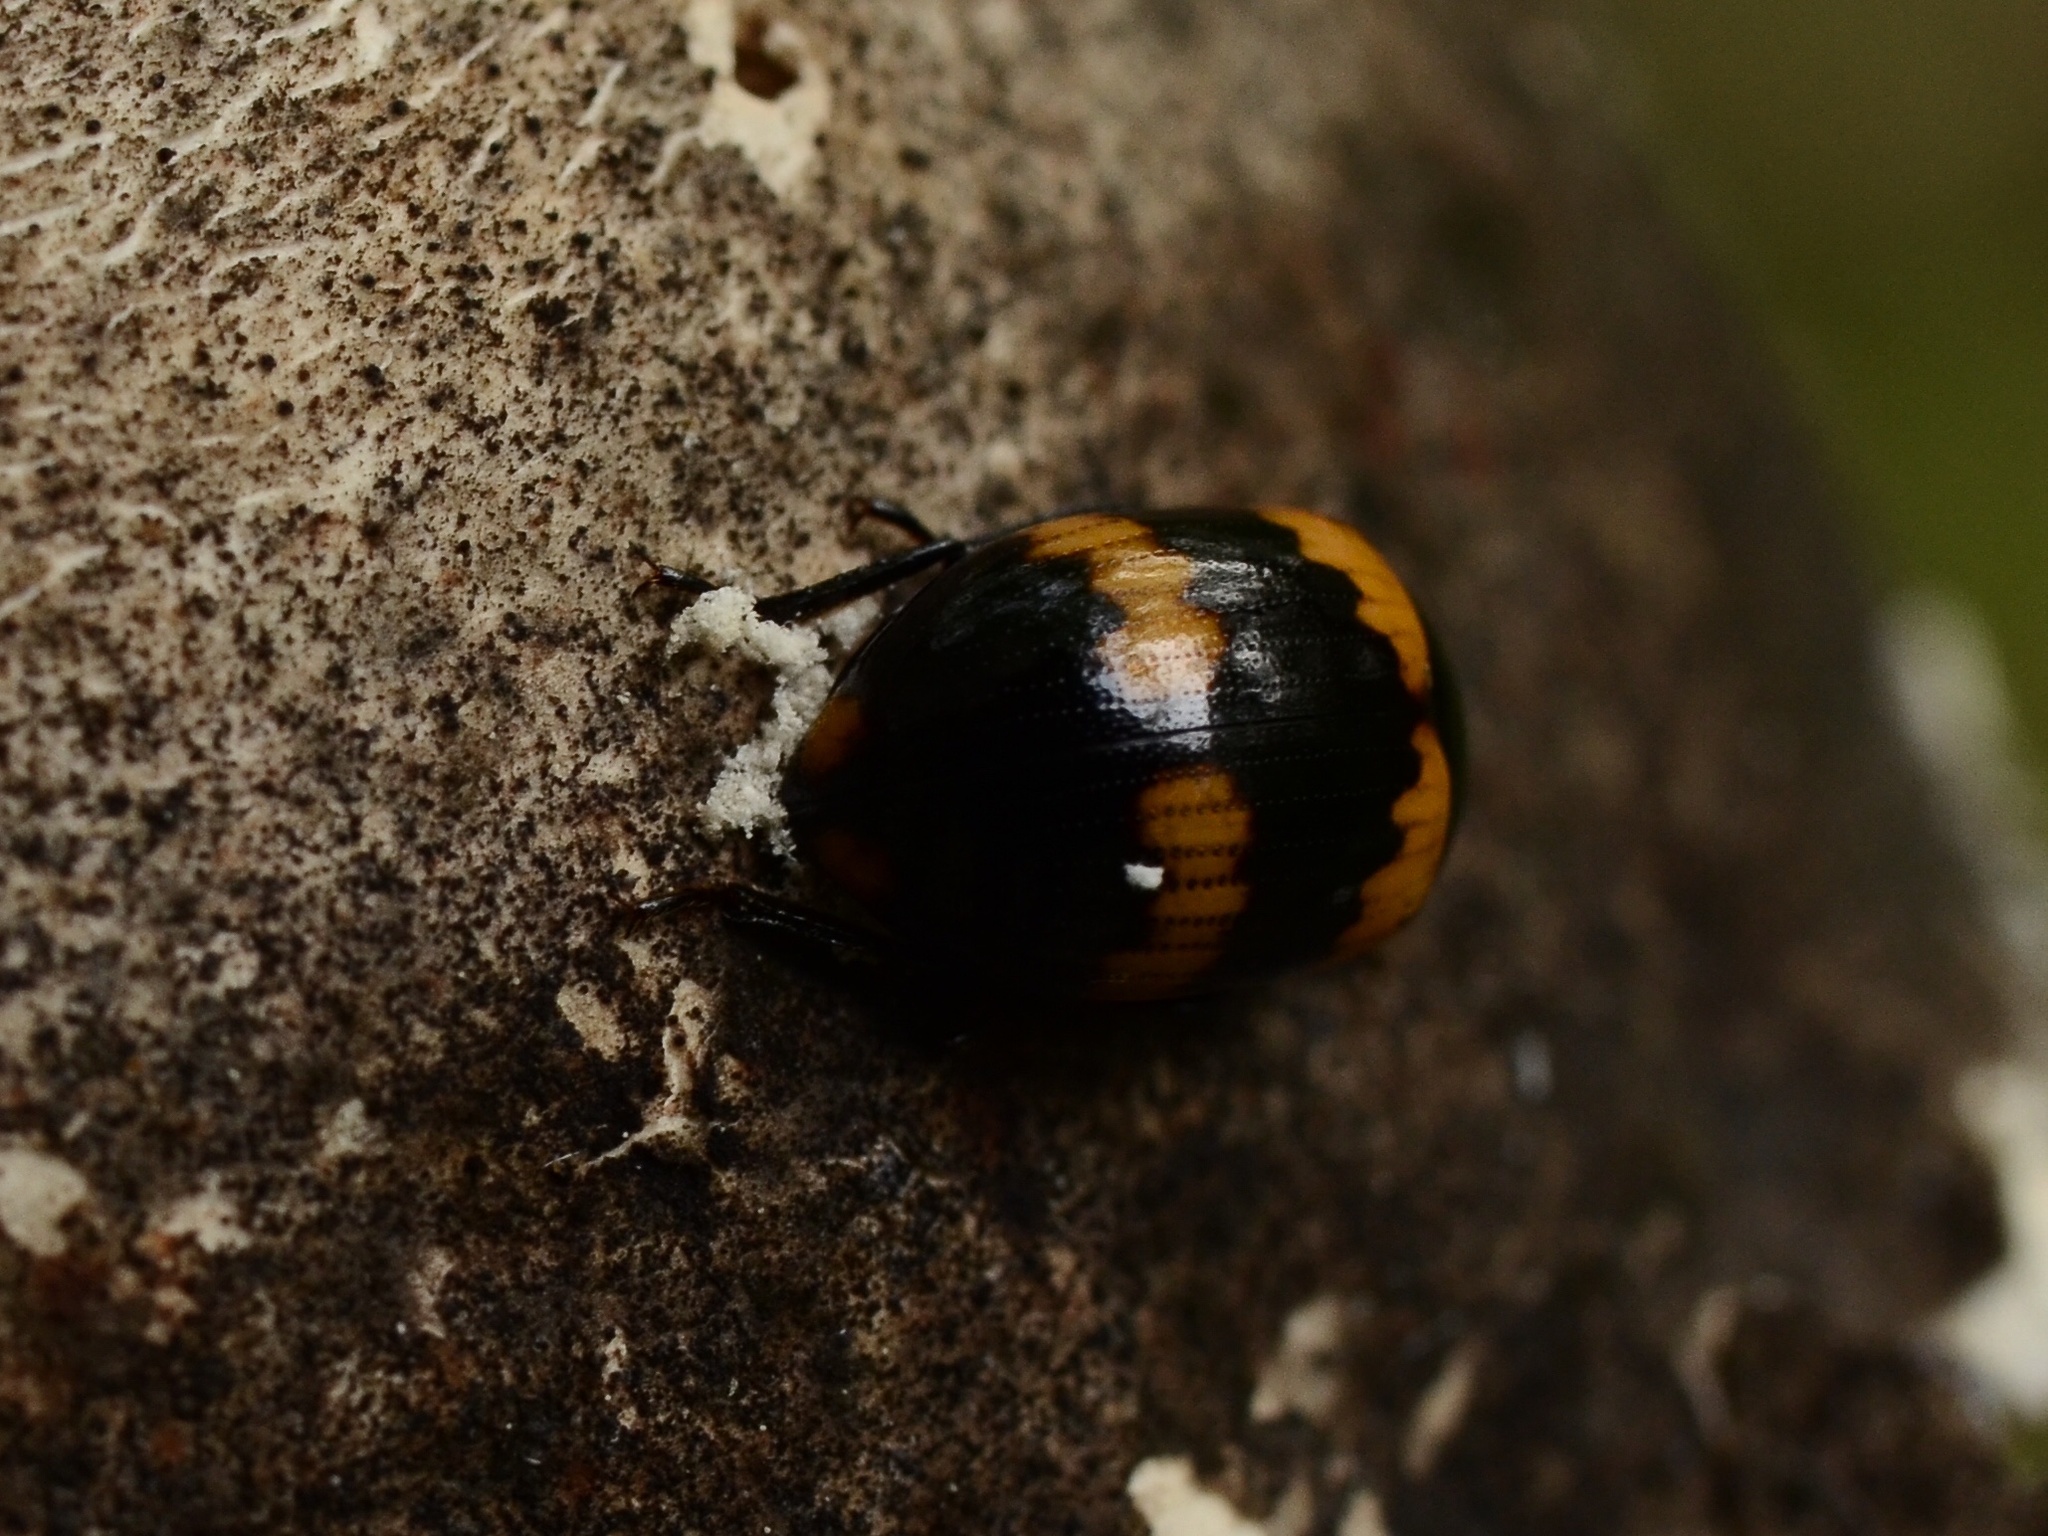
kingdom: Animalia
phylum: Arthropoda
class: Insecta
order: Coleoptera
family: Tenebrionidae
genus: Diaperis
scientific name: Diaperis boleti
